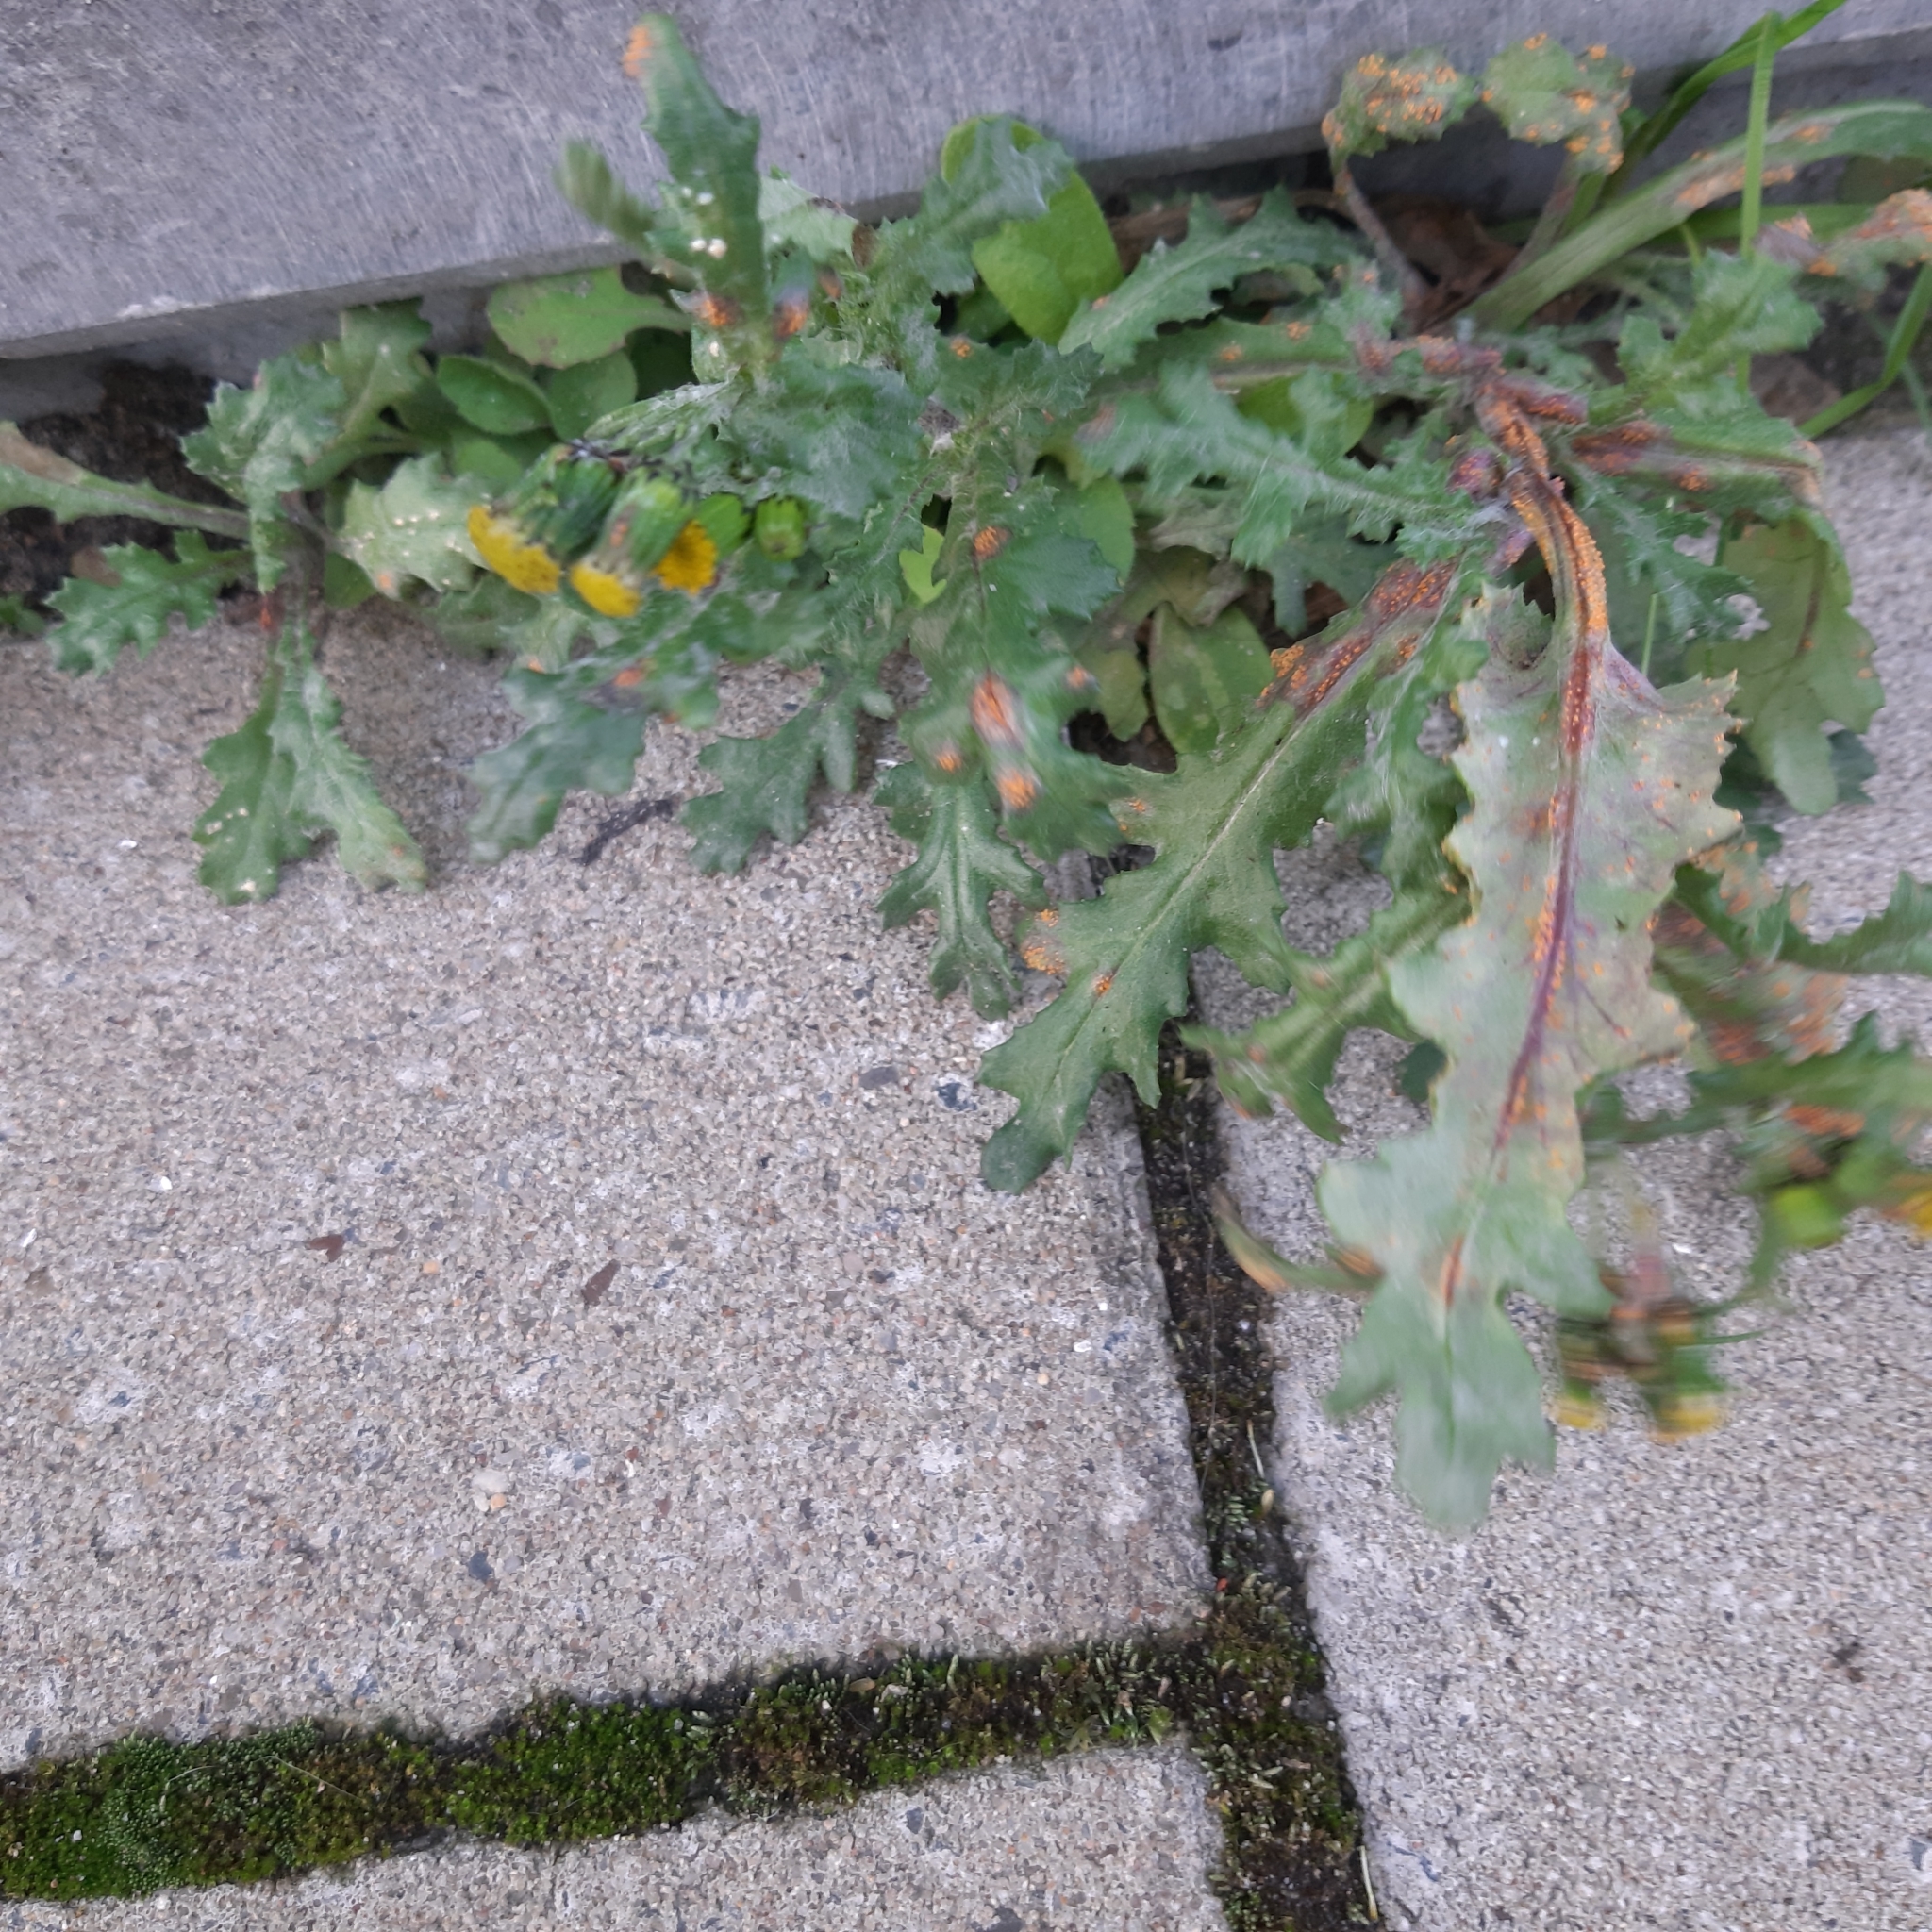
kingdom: Plantae
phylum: Tracheophyta
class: Magnoliopsida
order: Asterales
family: Asteraceae
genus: Senecio
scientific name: Senecio vulgaris
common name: Old-man-in-the-spring
